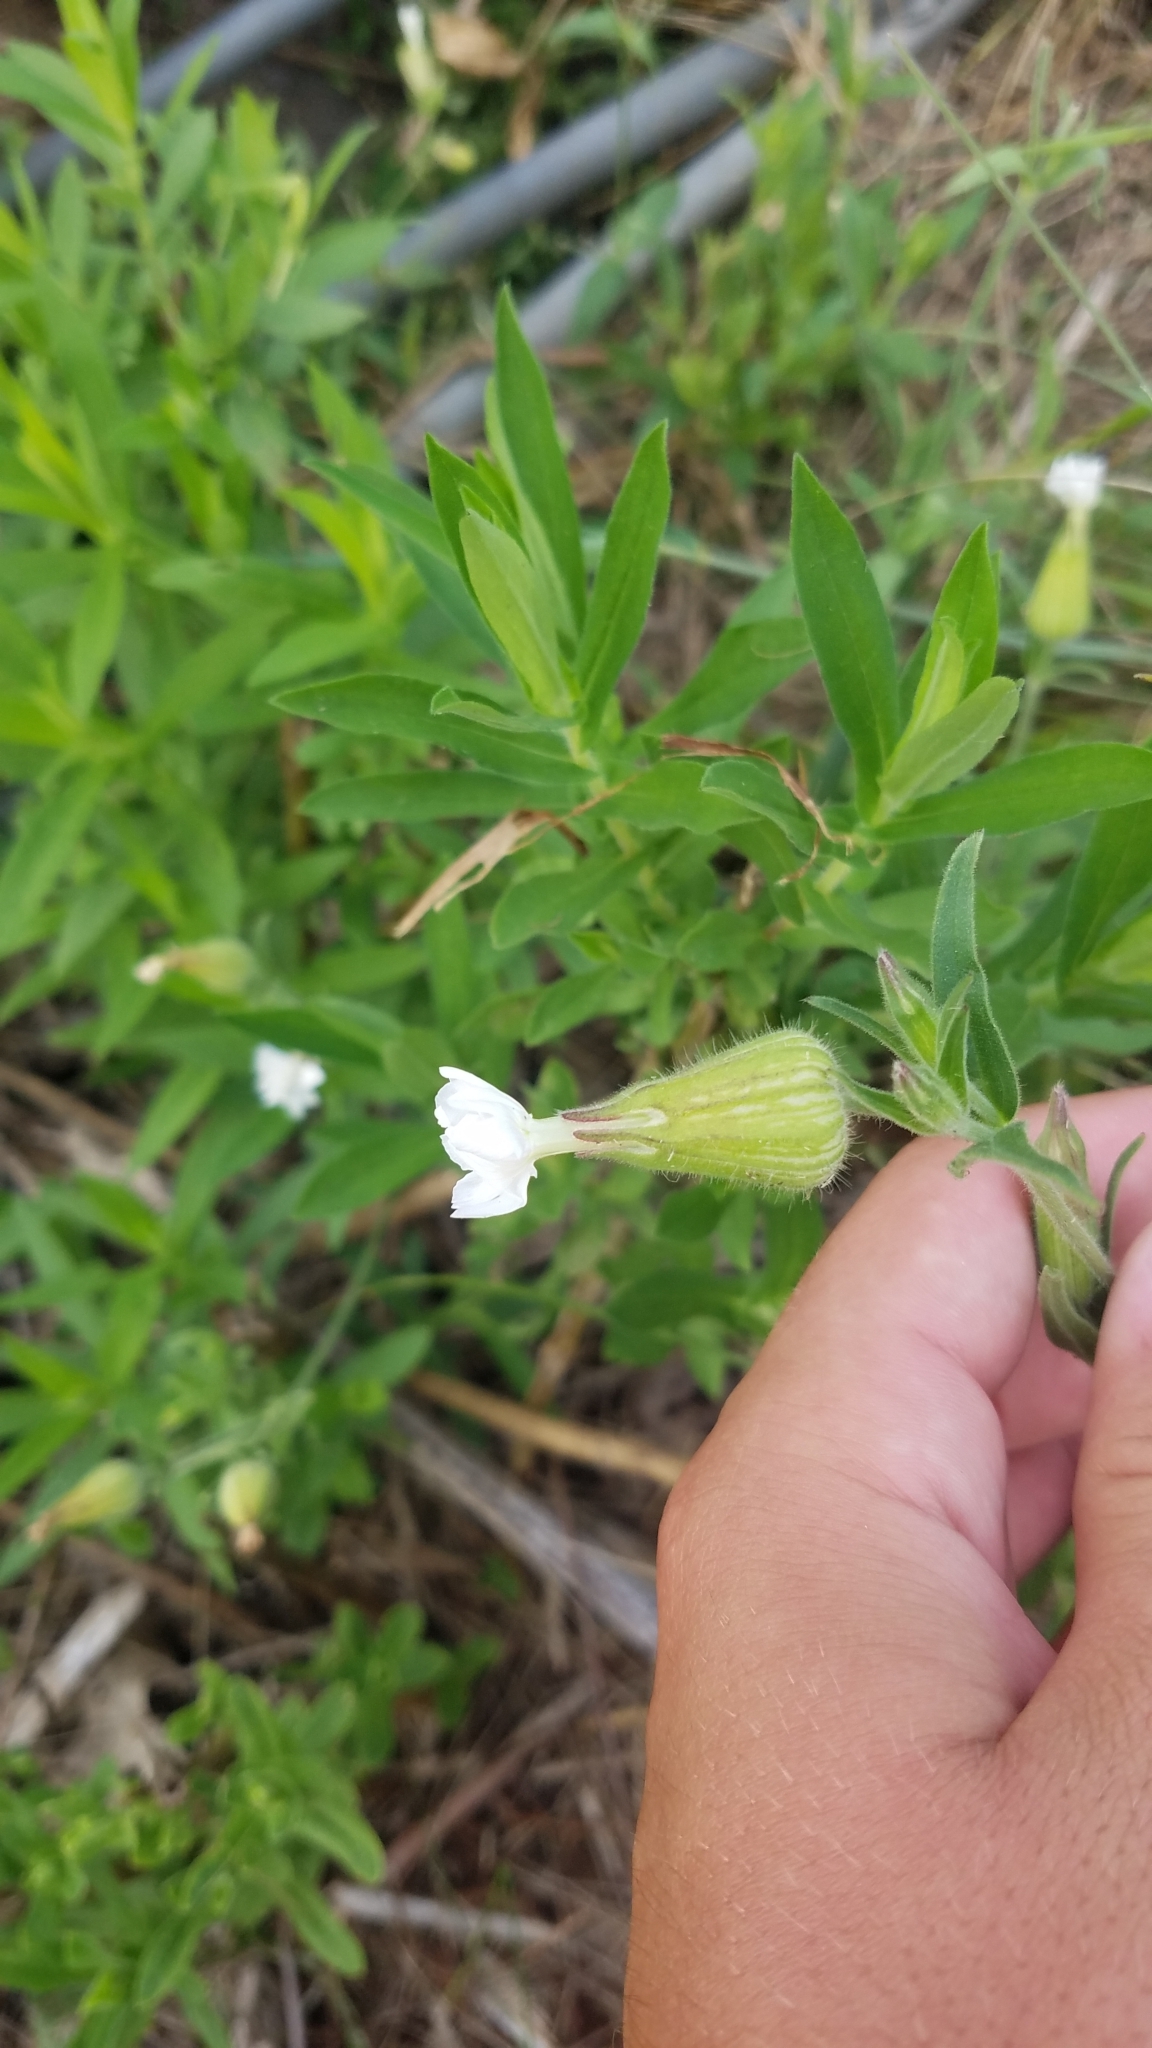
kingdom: Plantae
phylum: Tracheophyta
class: Magnoliopsida
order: Caryophyllales
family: Caryophyllaceae
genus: Silene
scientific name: Silene latifolia
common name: White campion
